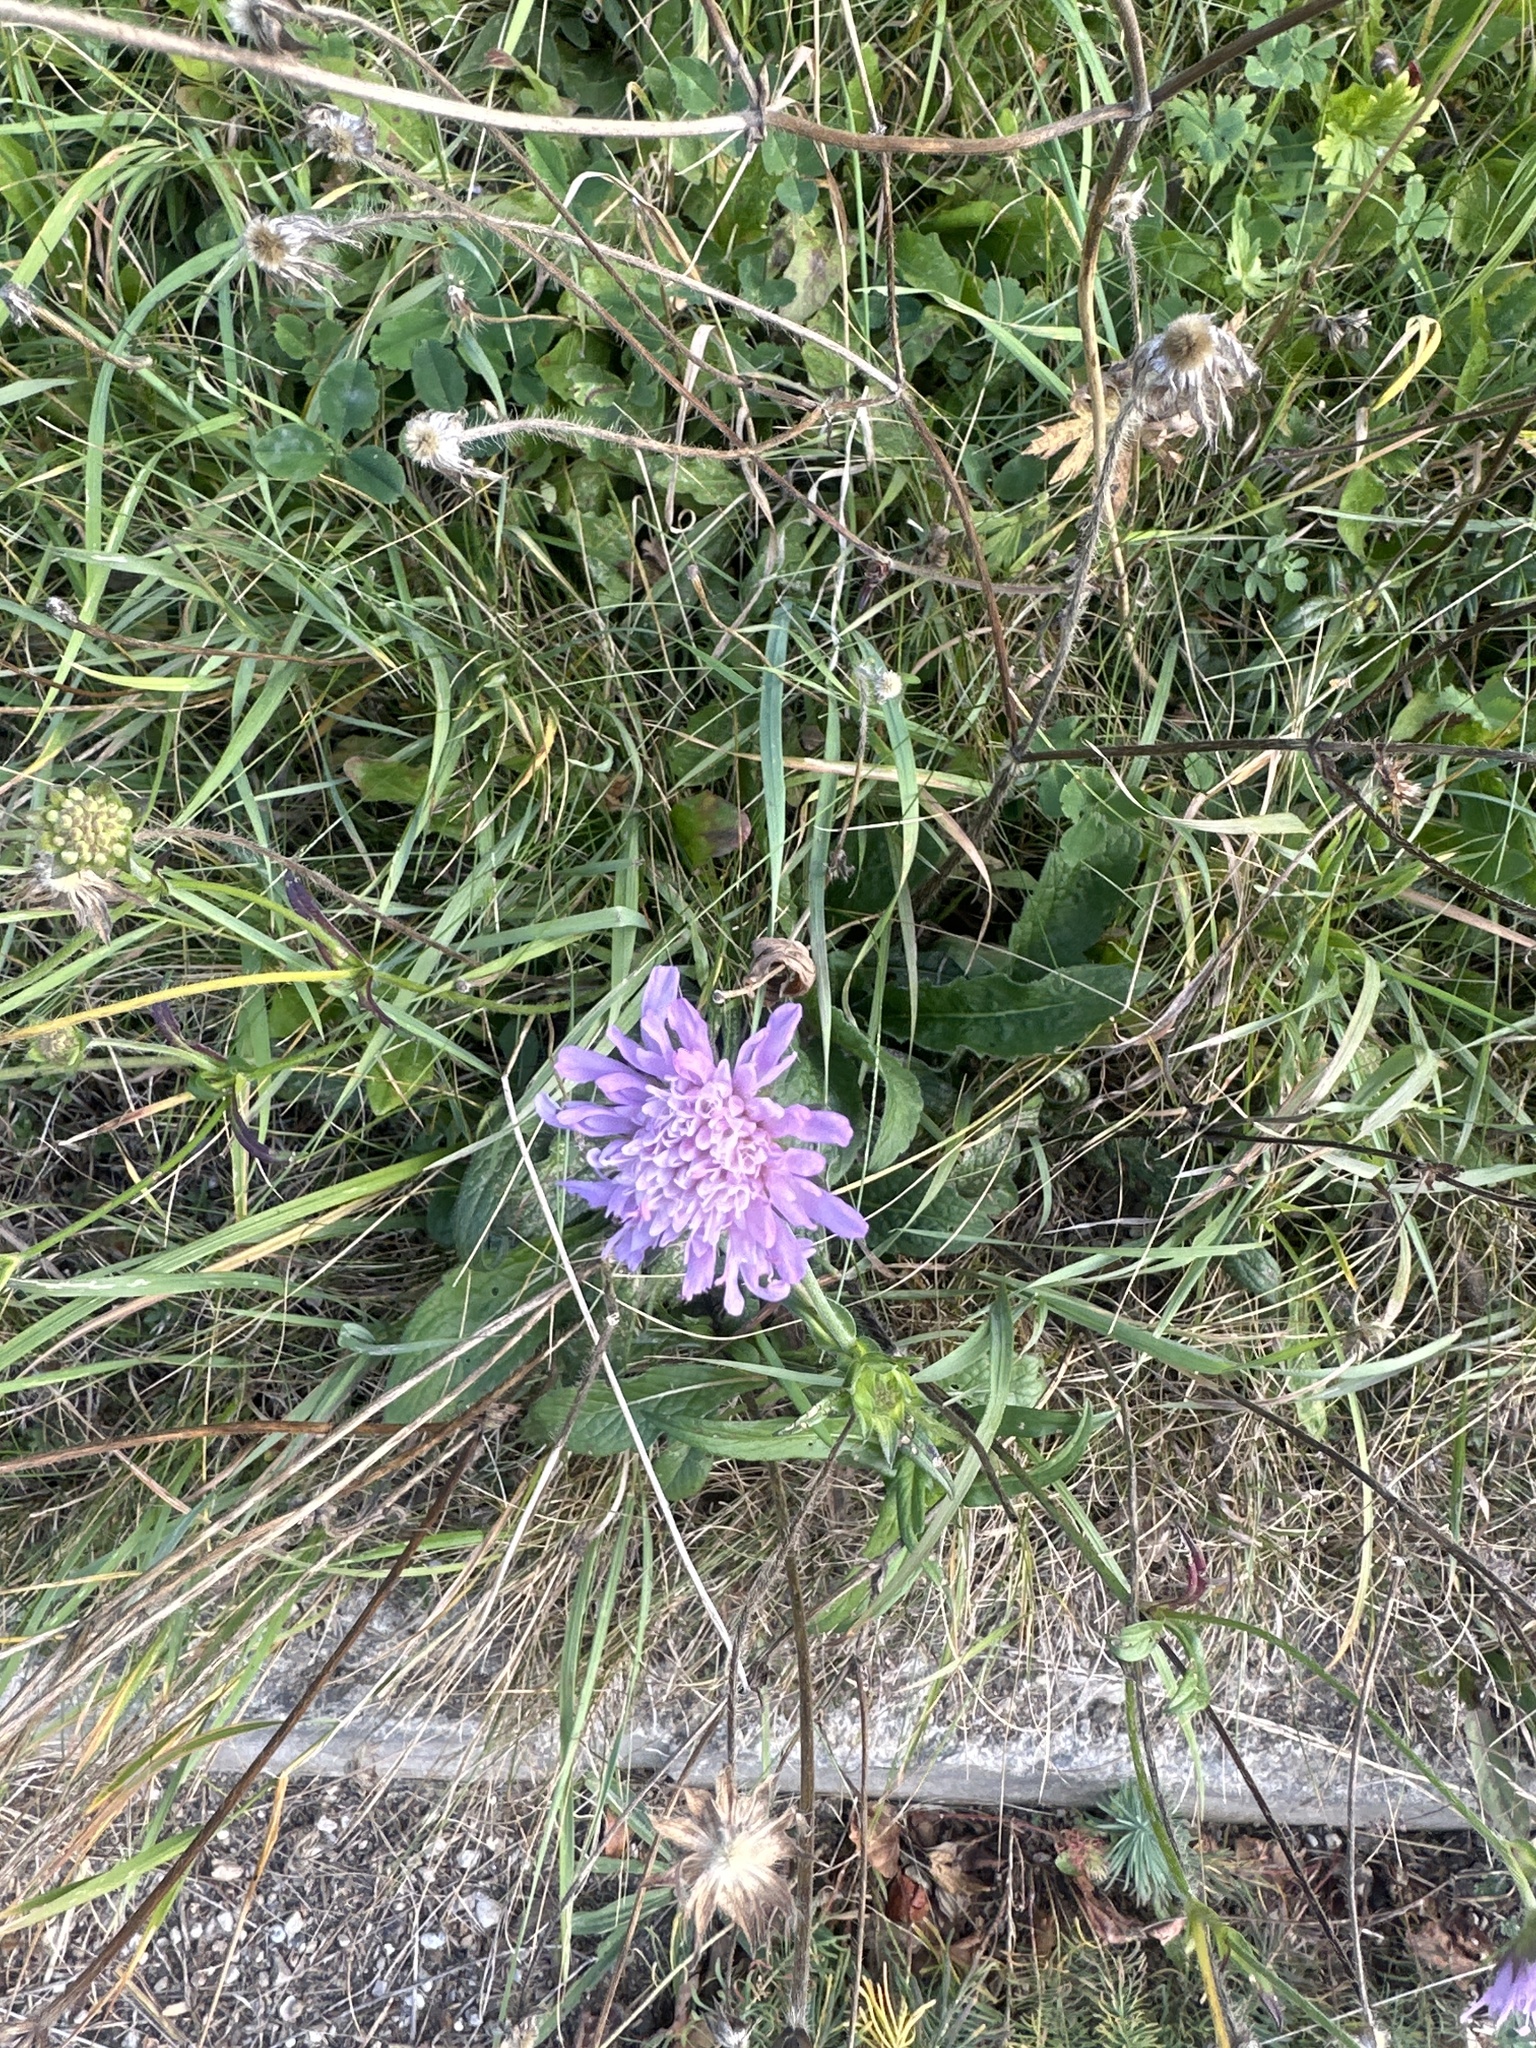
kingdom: Plantae
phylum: Tracheophyta
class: Magnoliopsida
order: Dipsacales
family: Caprifoliaceae
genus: Knautia
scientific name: Knautia arvensis
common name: Field scabiosa
